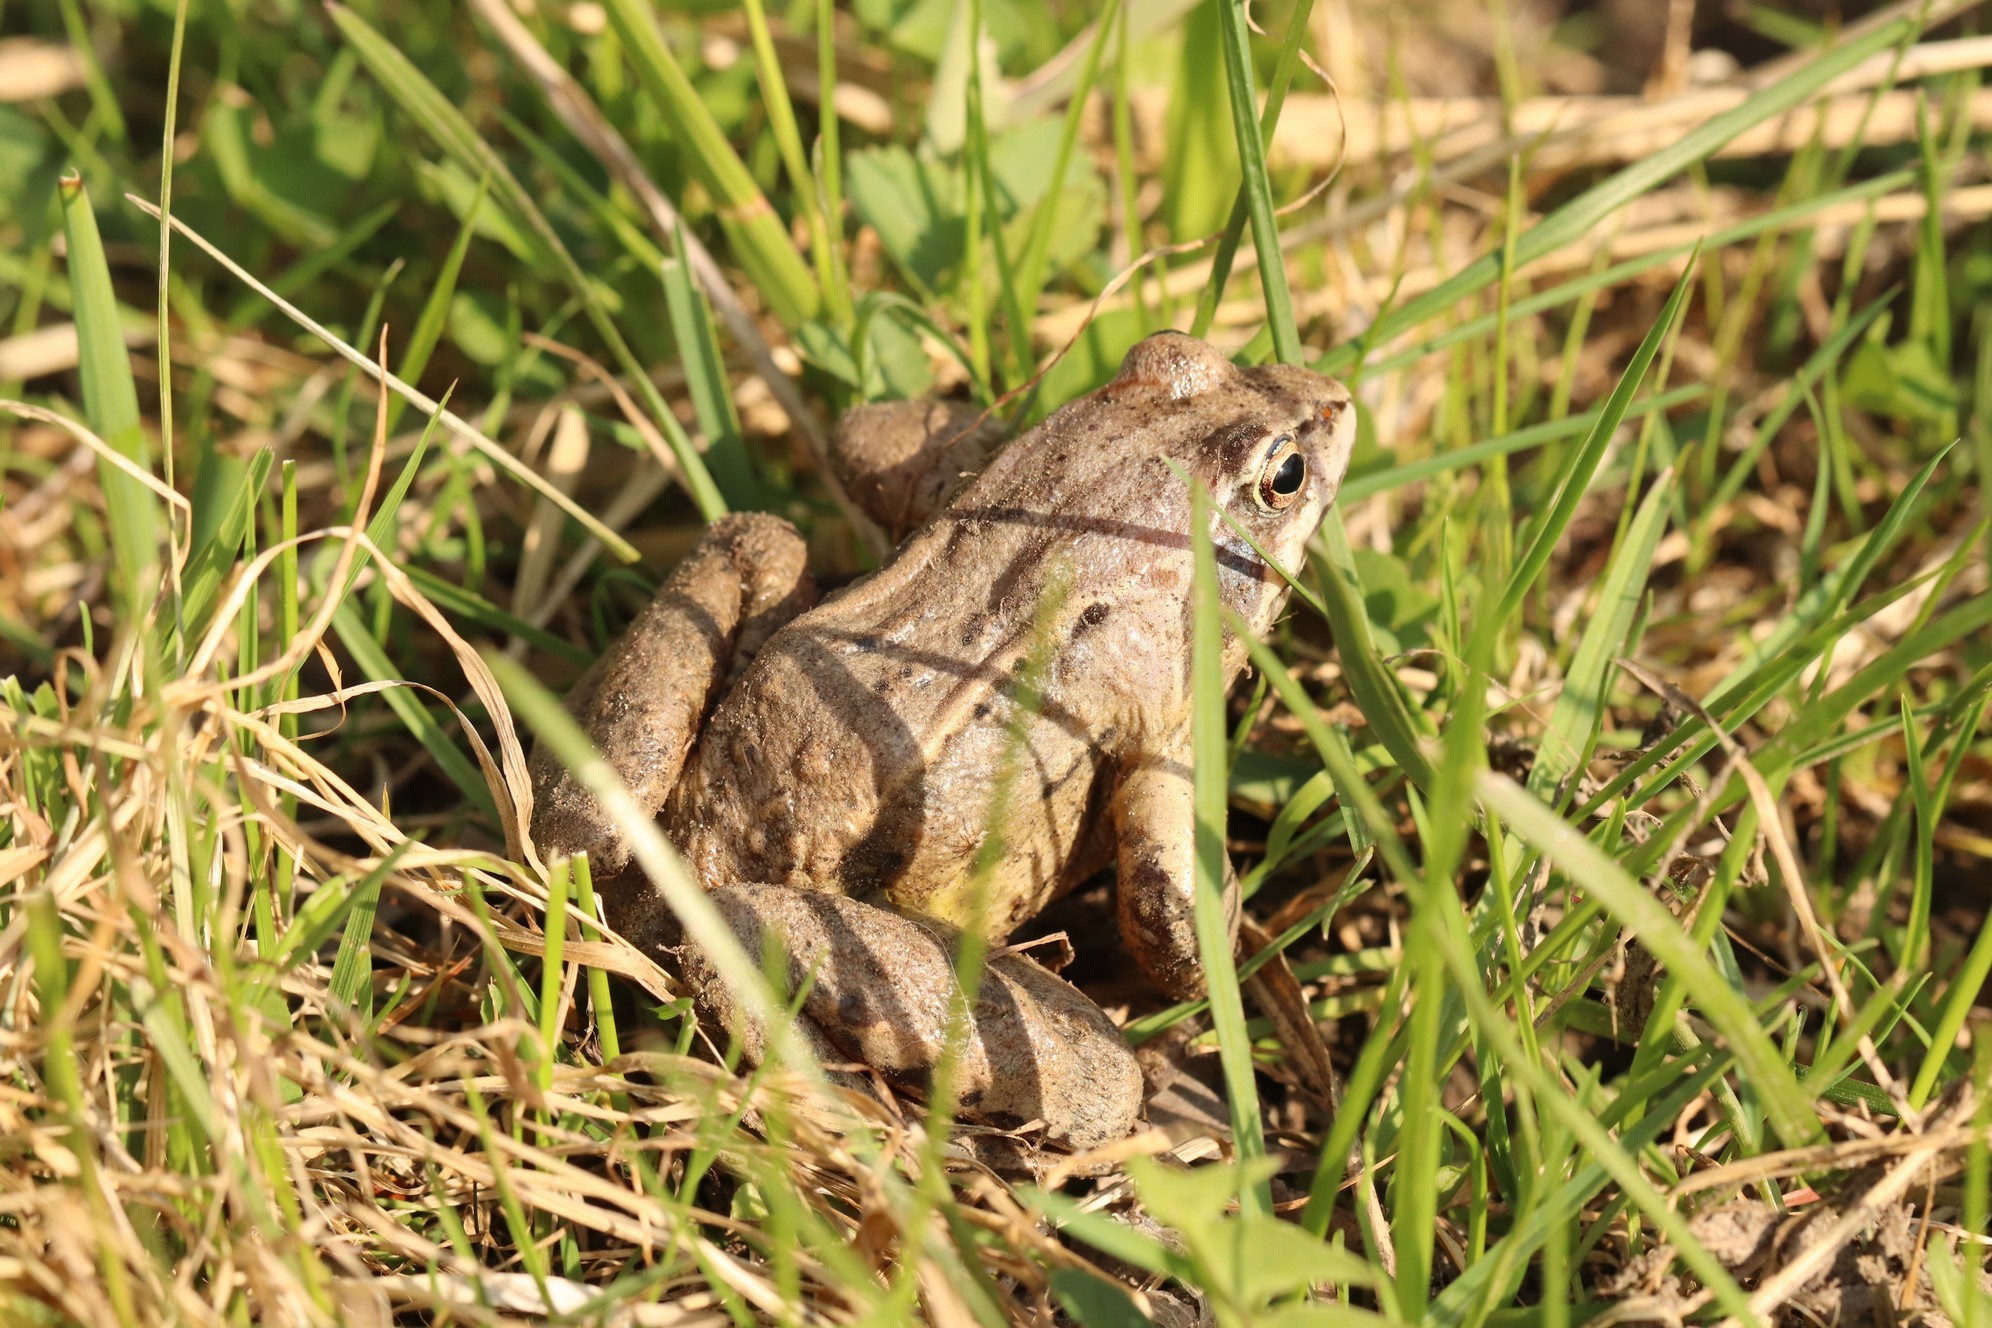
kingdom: Animalia
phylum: Chordata
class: Amphibia
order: Anura
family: Ranidae
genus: Rana
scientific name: Rana arvalis
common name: Moor frog
